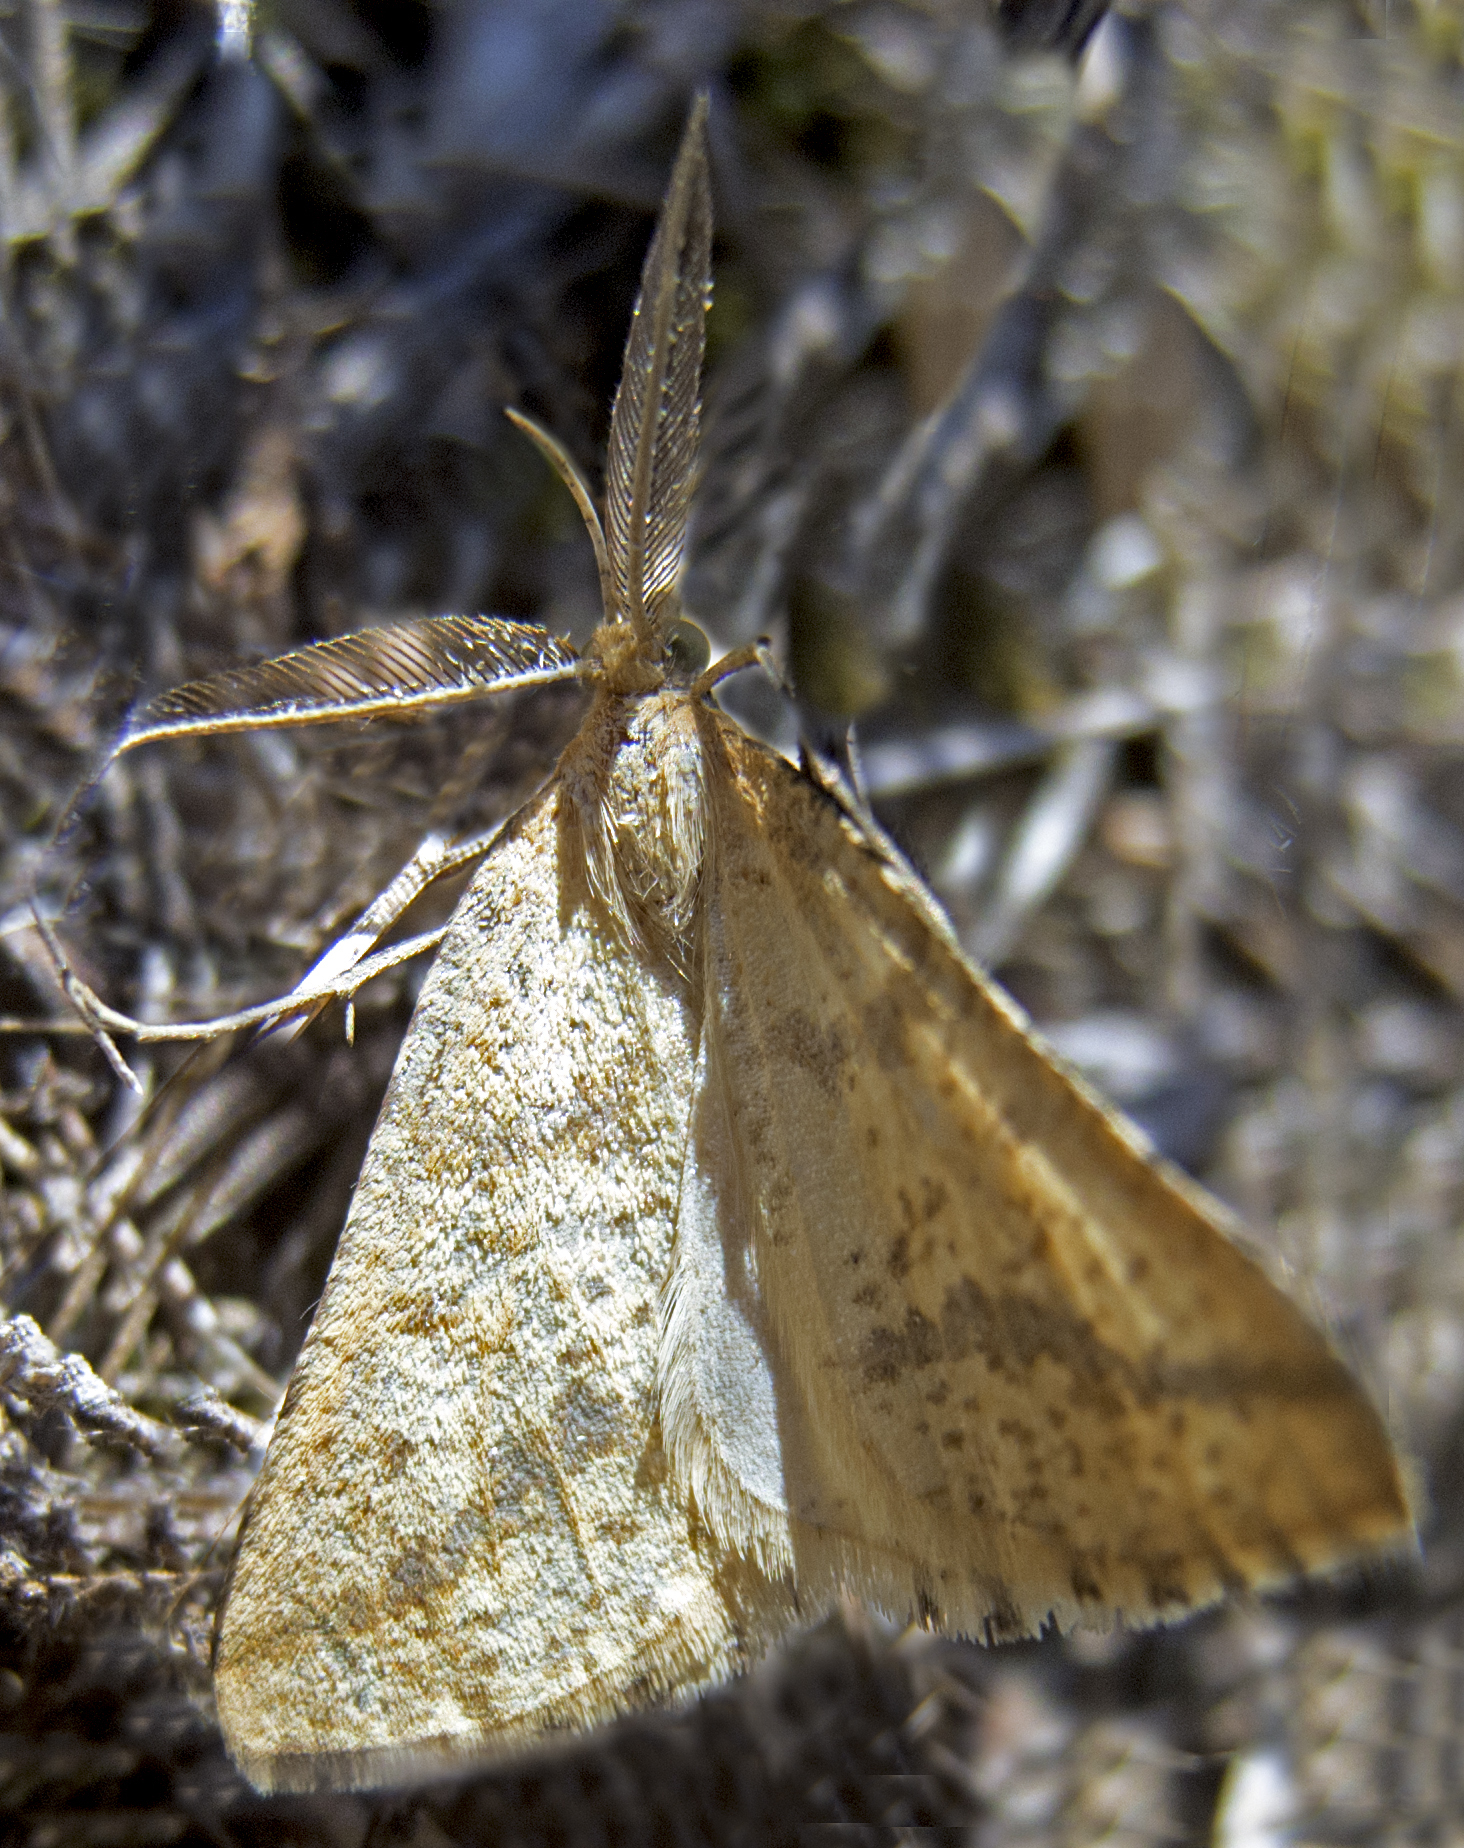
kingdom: Animalia
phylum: Arthropoda
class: Insecta
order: Lepidoptera
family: Geometridae
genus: Aspitates
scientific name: Aspitates ochrearia
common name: Yellow belle
